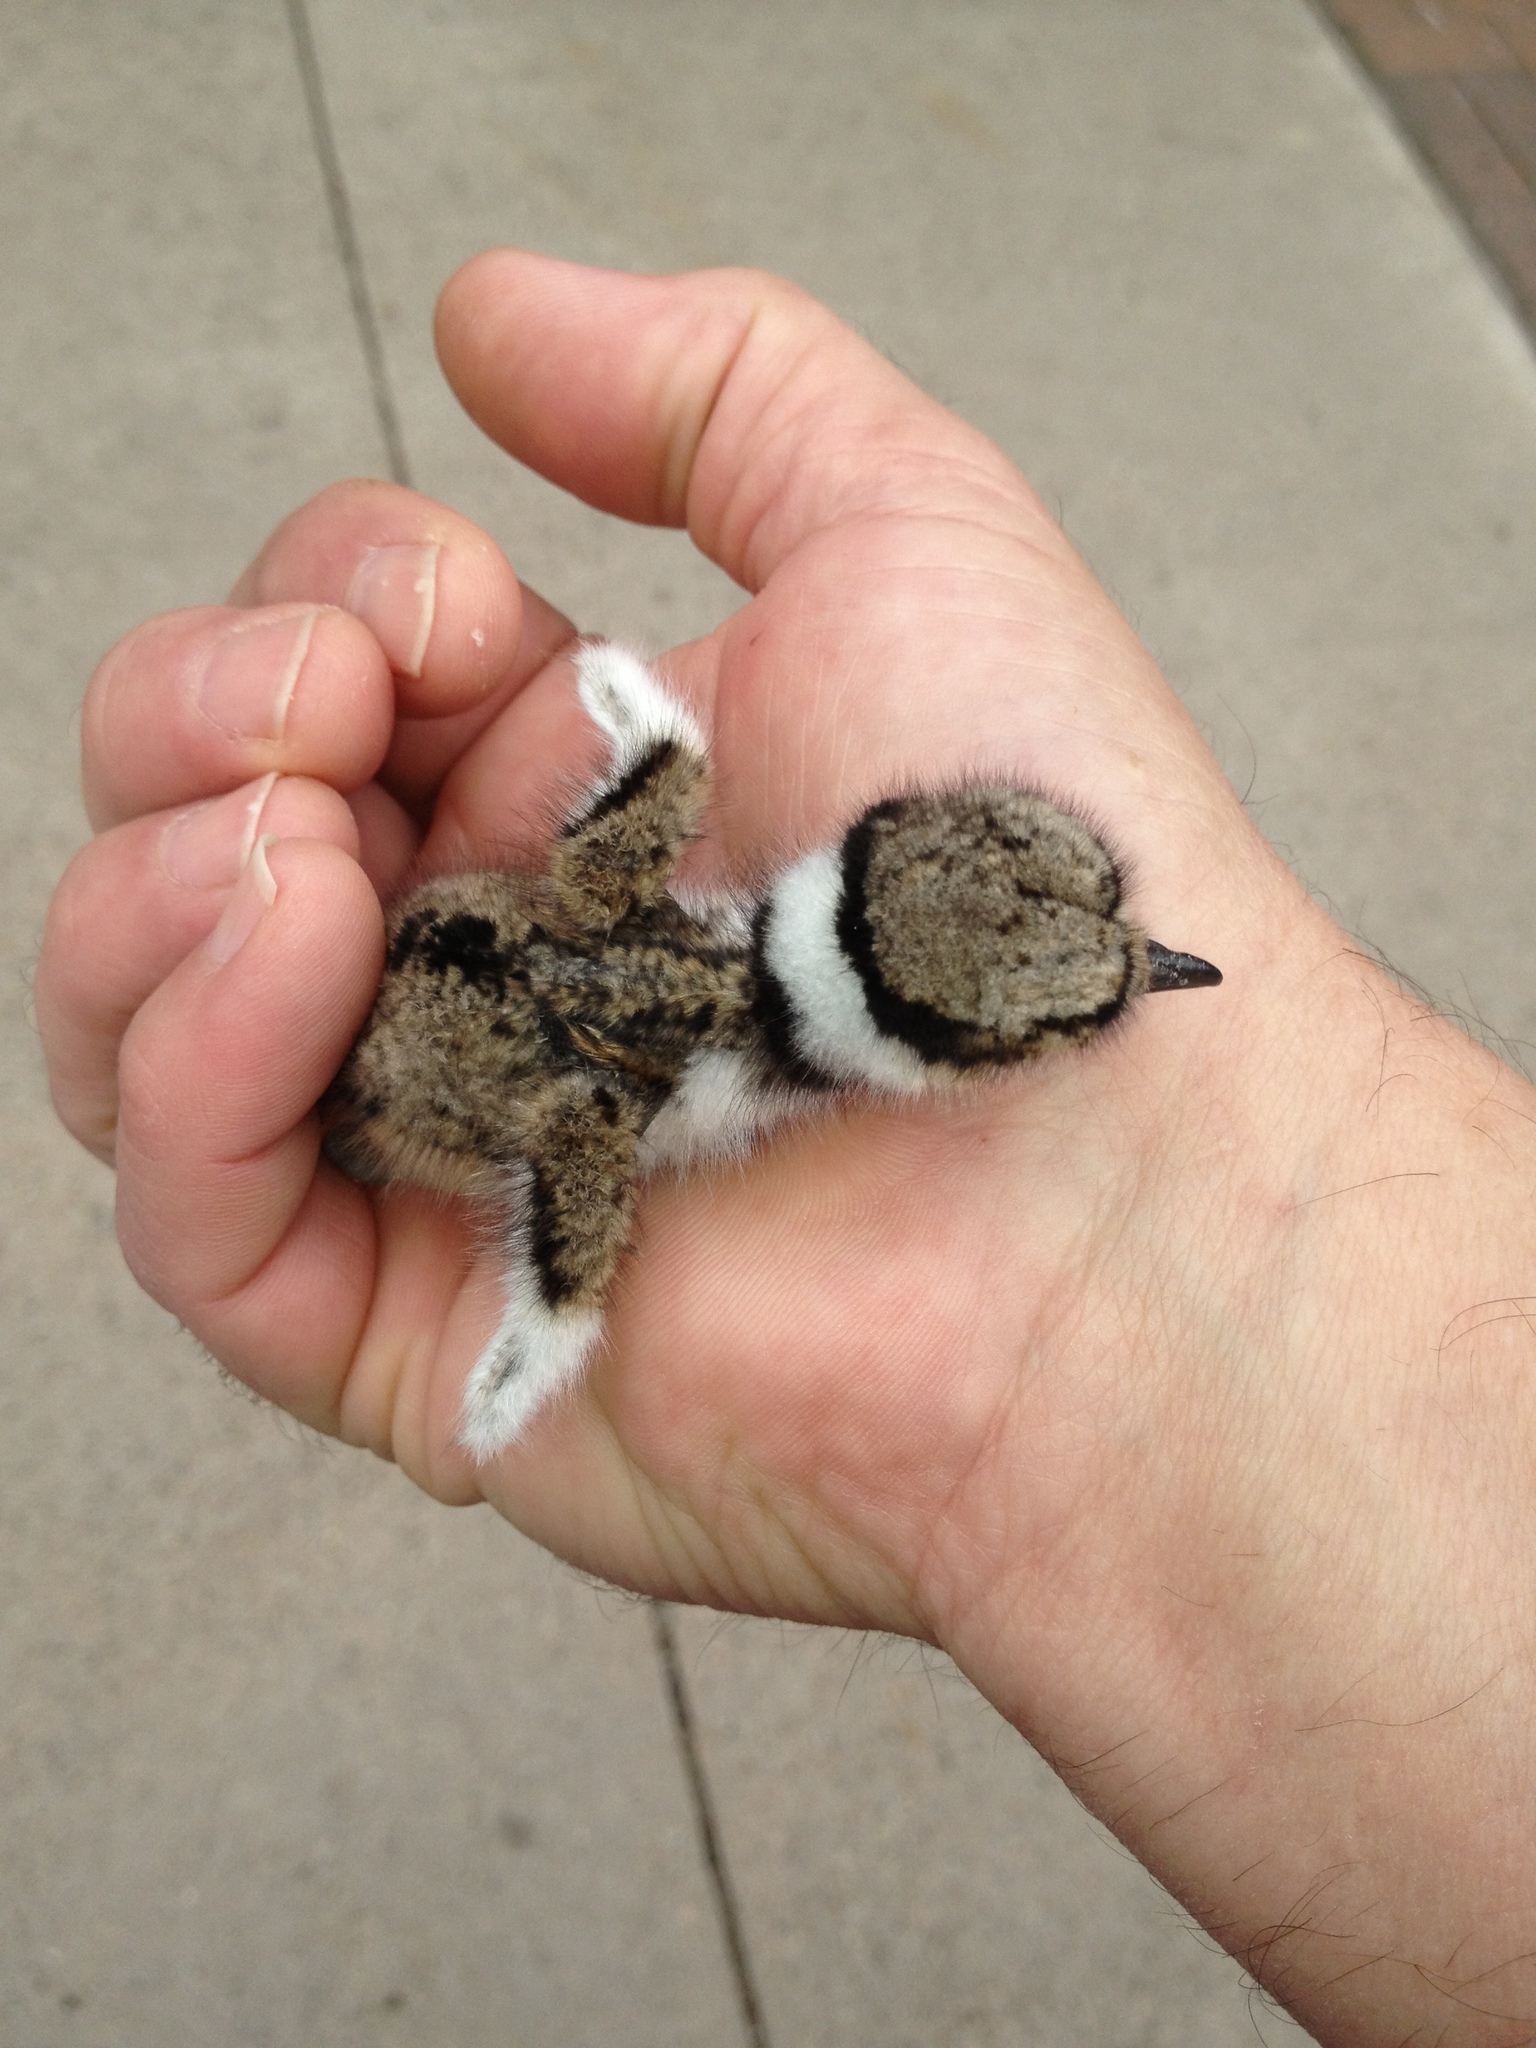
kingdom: Animalia
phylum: Chordata
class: Aves
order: Charadriiformes
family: Charadriidae
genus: Charadrius
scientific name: Charadrius vociferus
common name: Killdeer
